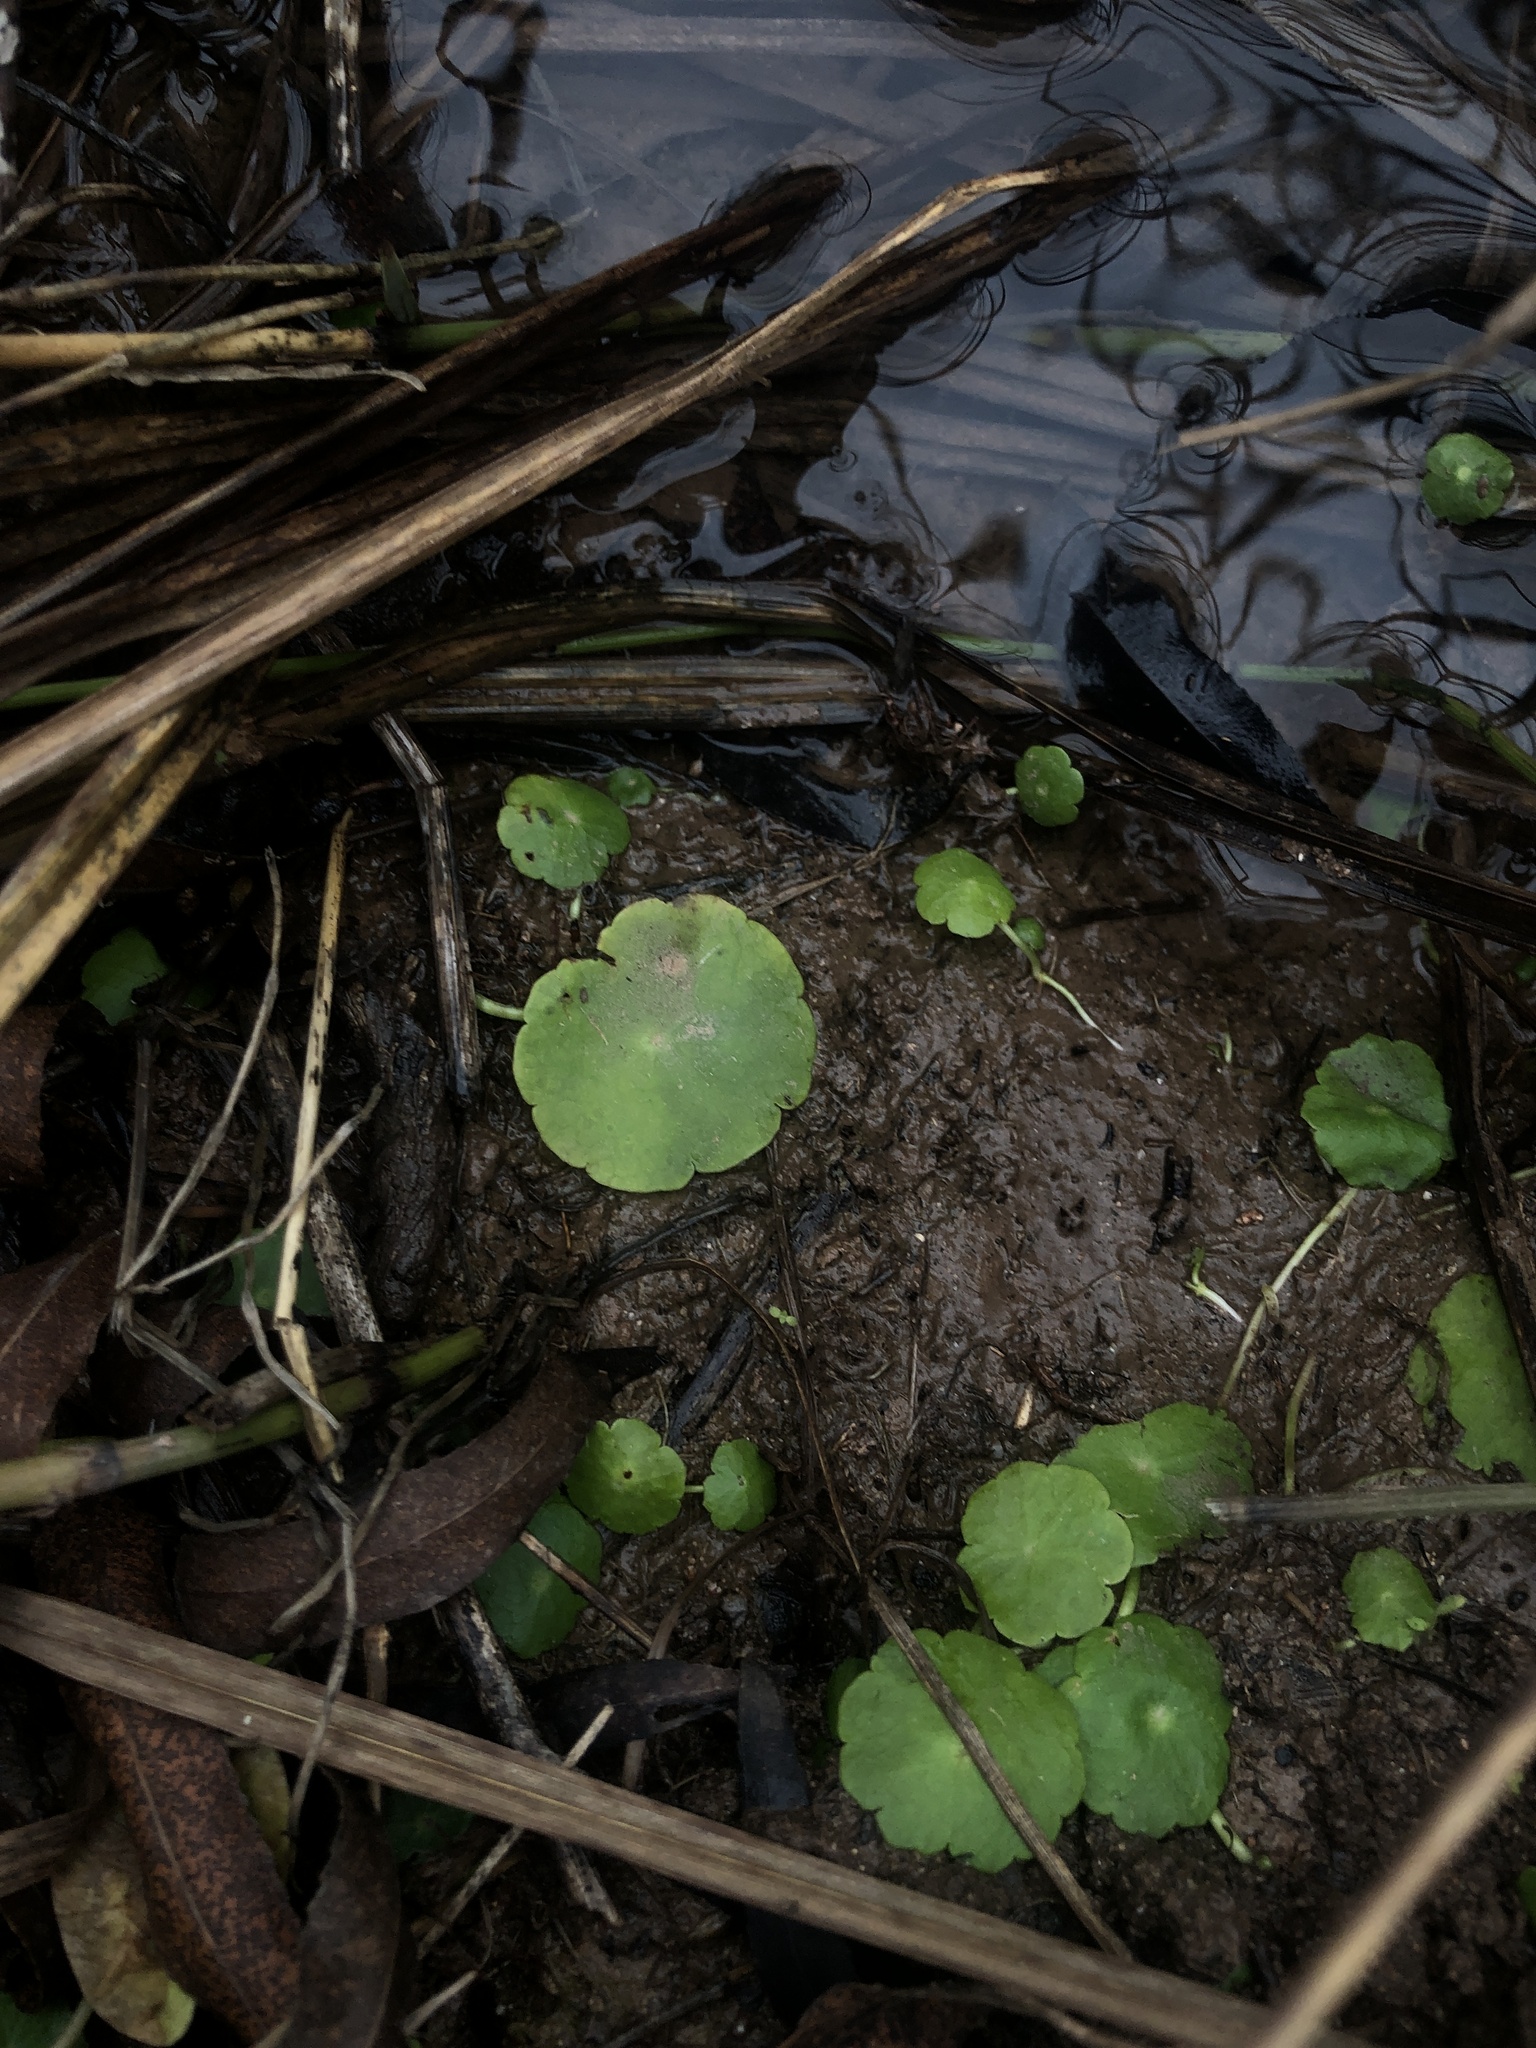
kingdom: Plantae
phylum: Tracheophyta
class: Magnoliopsida
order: Apiales
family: Araliaceae
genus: Hydrocotyle
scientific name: Hydrocotyle verticillata
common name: Whorled marshpennywort
